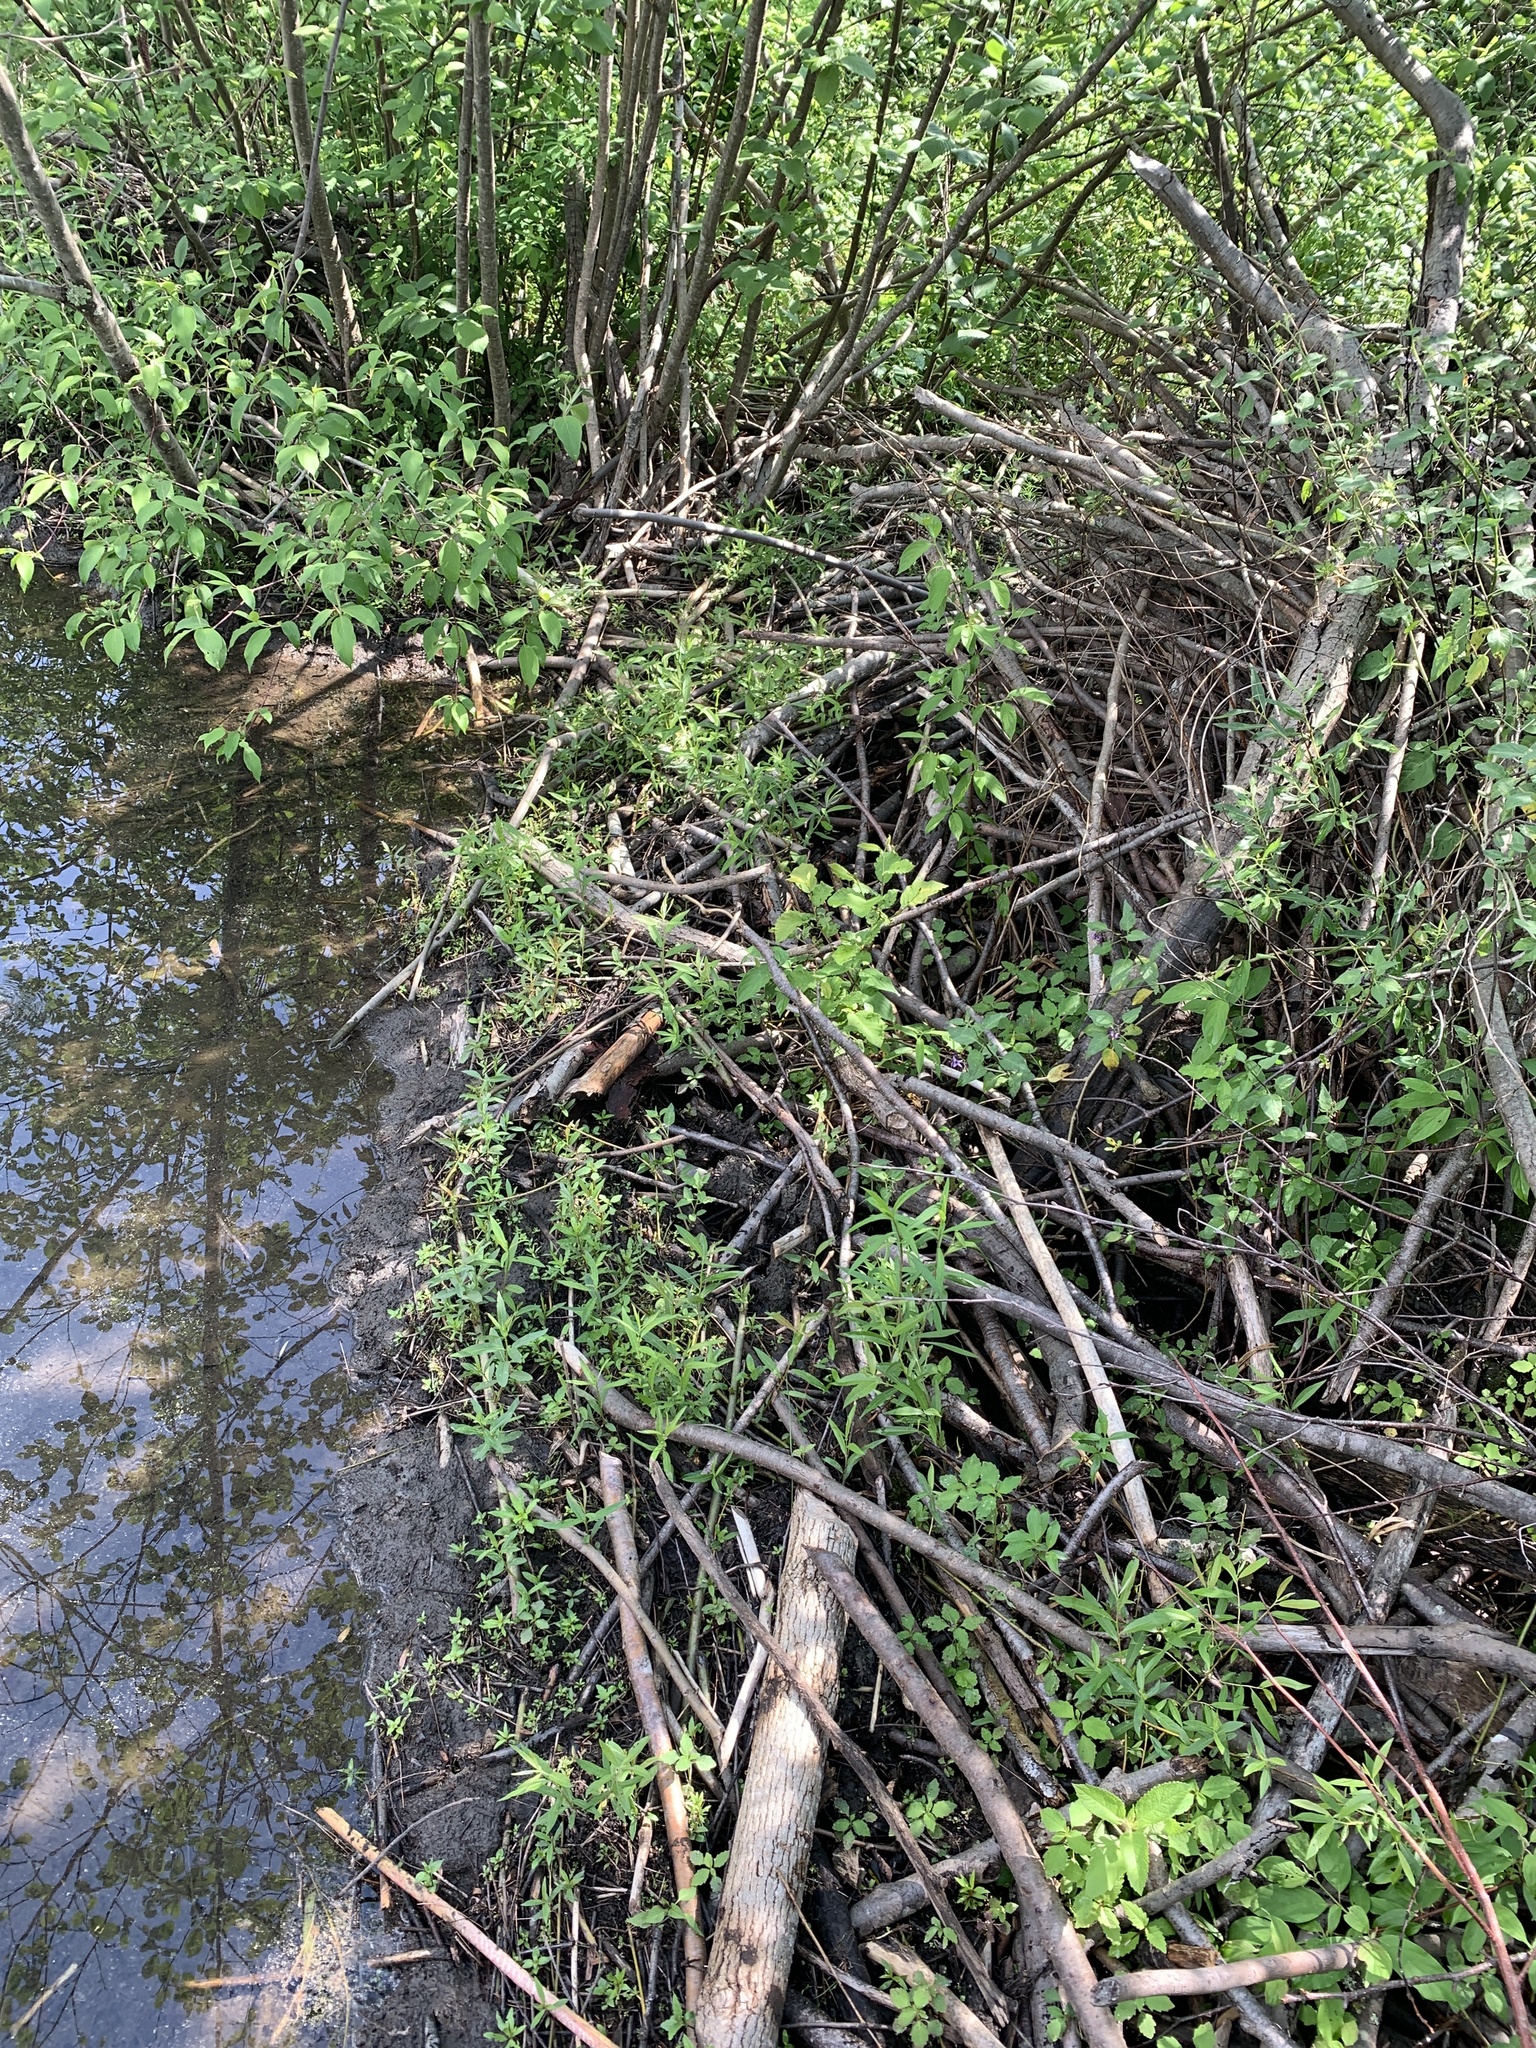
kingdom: Animalia
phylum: Chordata
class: Mammalia
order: Rodentia
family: Castoridae
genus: Castor
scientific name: Castor canadensis
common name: American beaver
